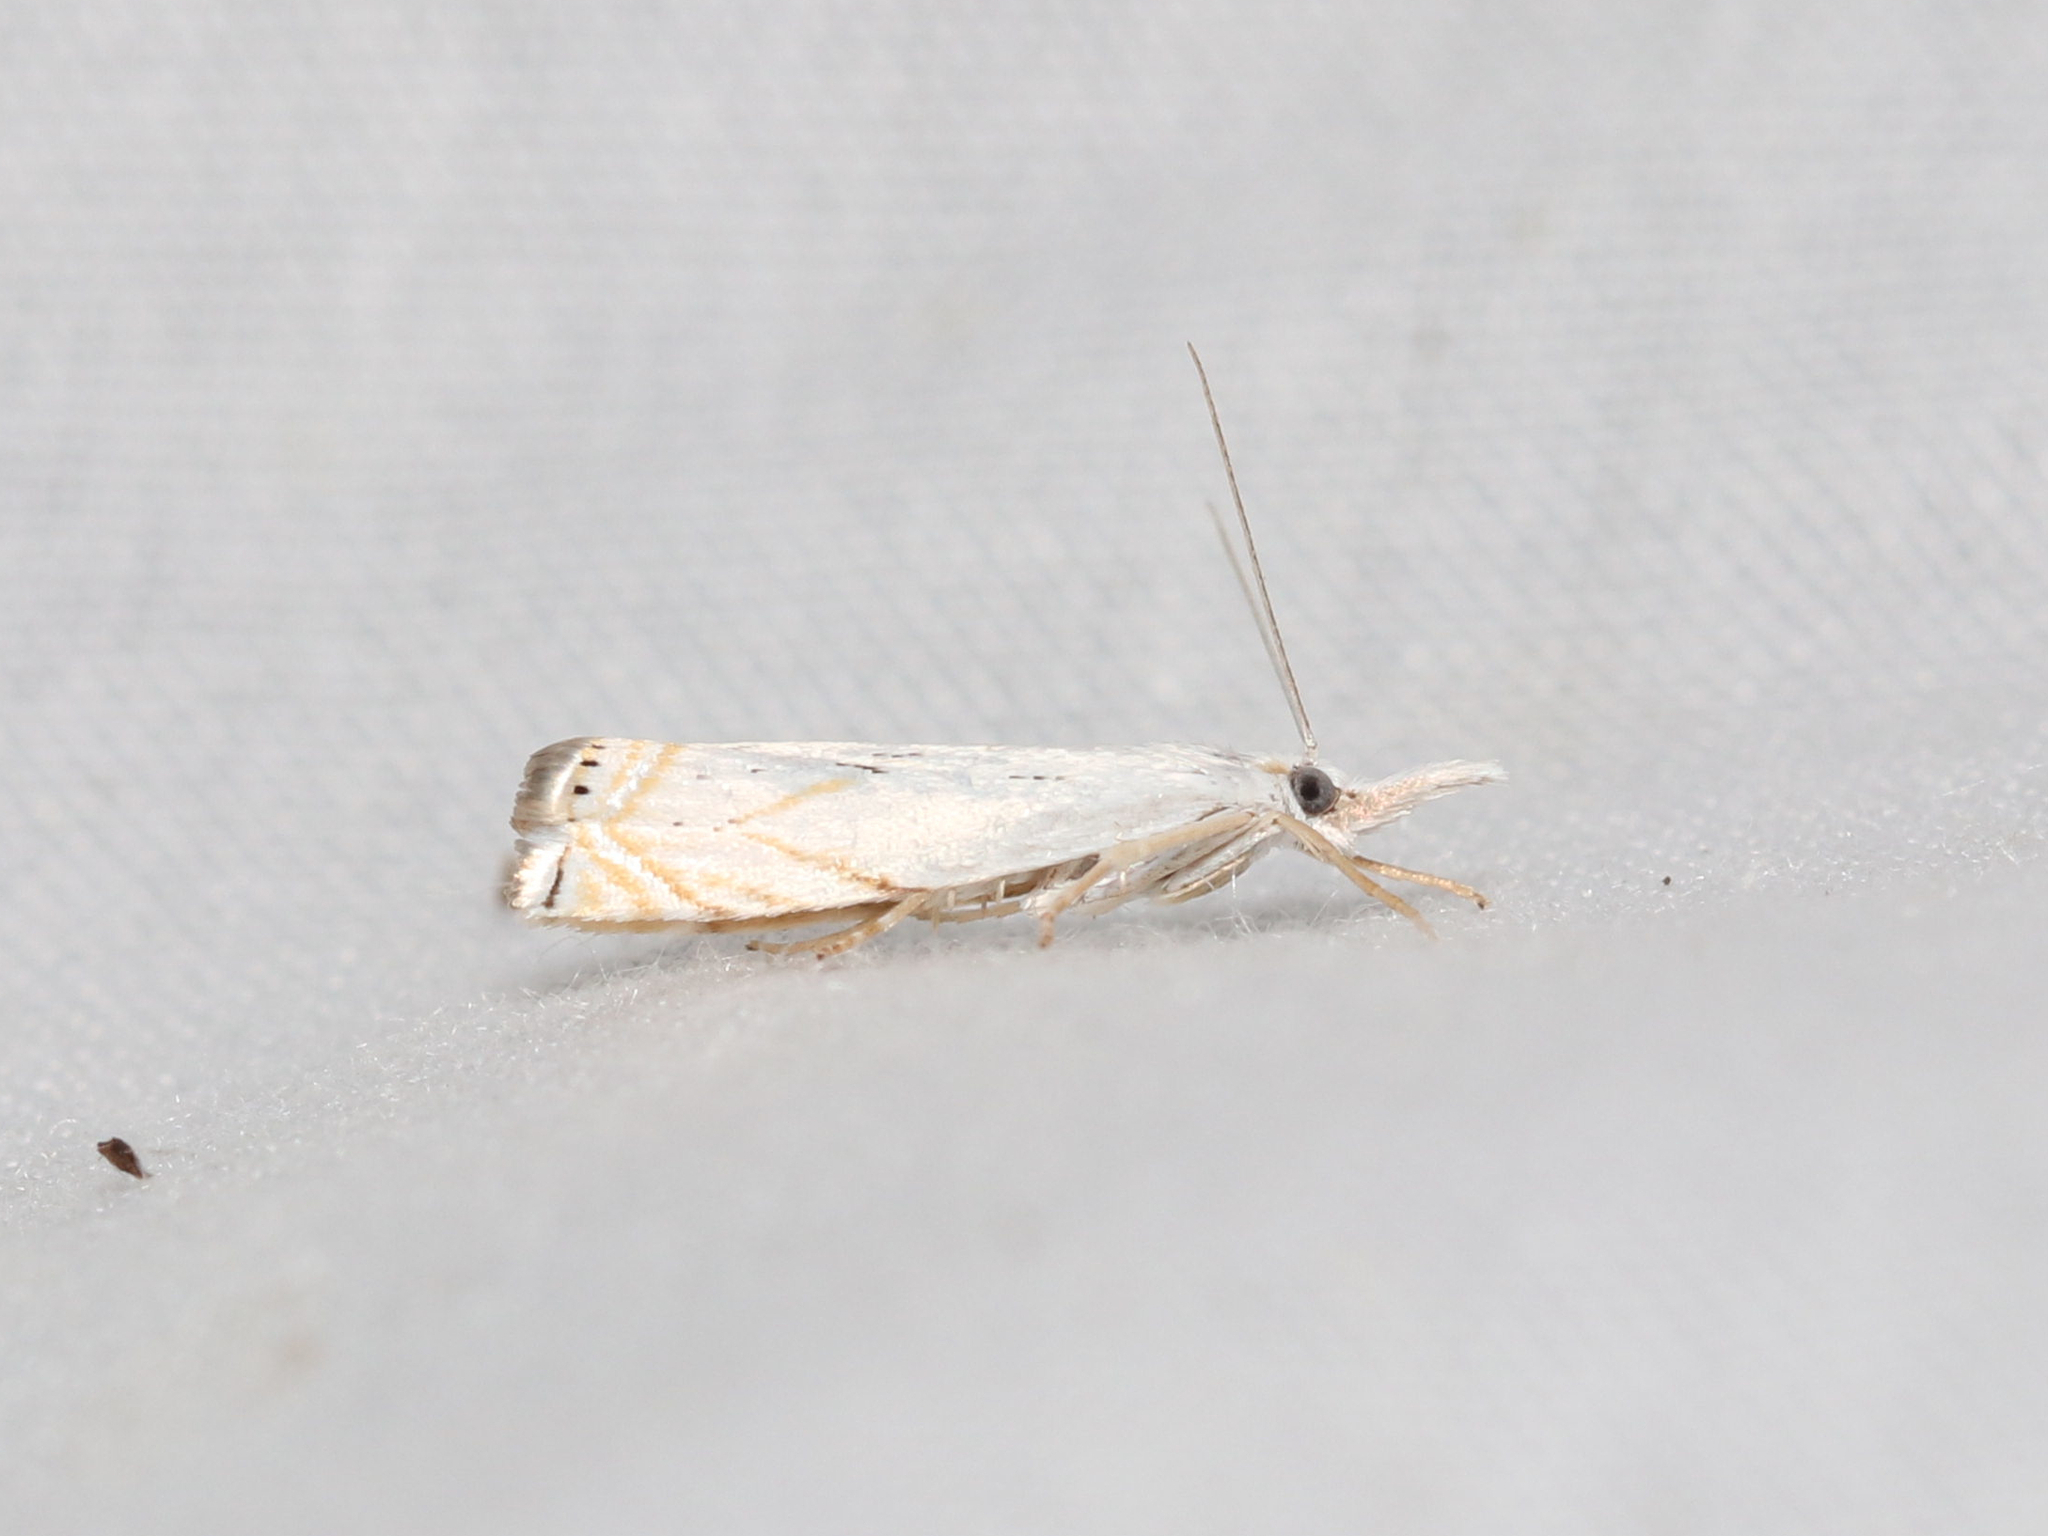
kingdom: Animalia
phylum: Arthropoda
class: Insecta
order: Lepidoptera
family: Crambidae
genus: Crambus
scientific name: Crambus albellus
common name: Small white grass-veneer
